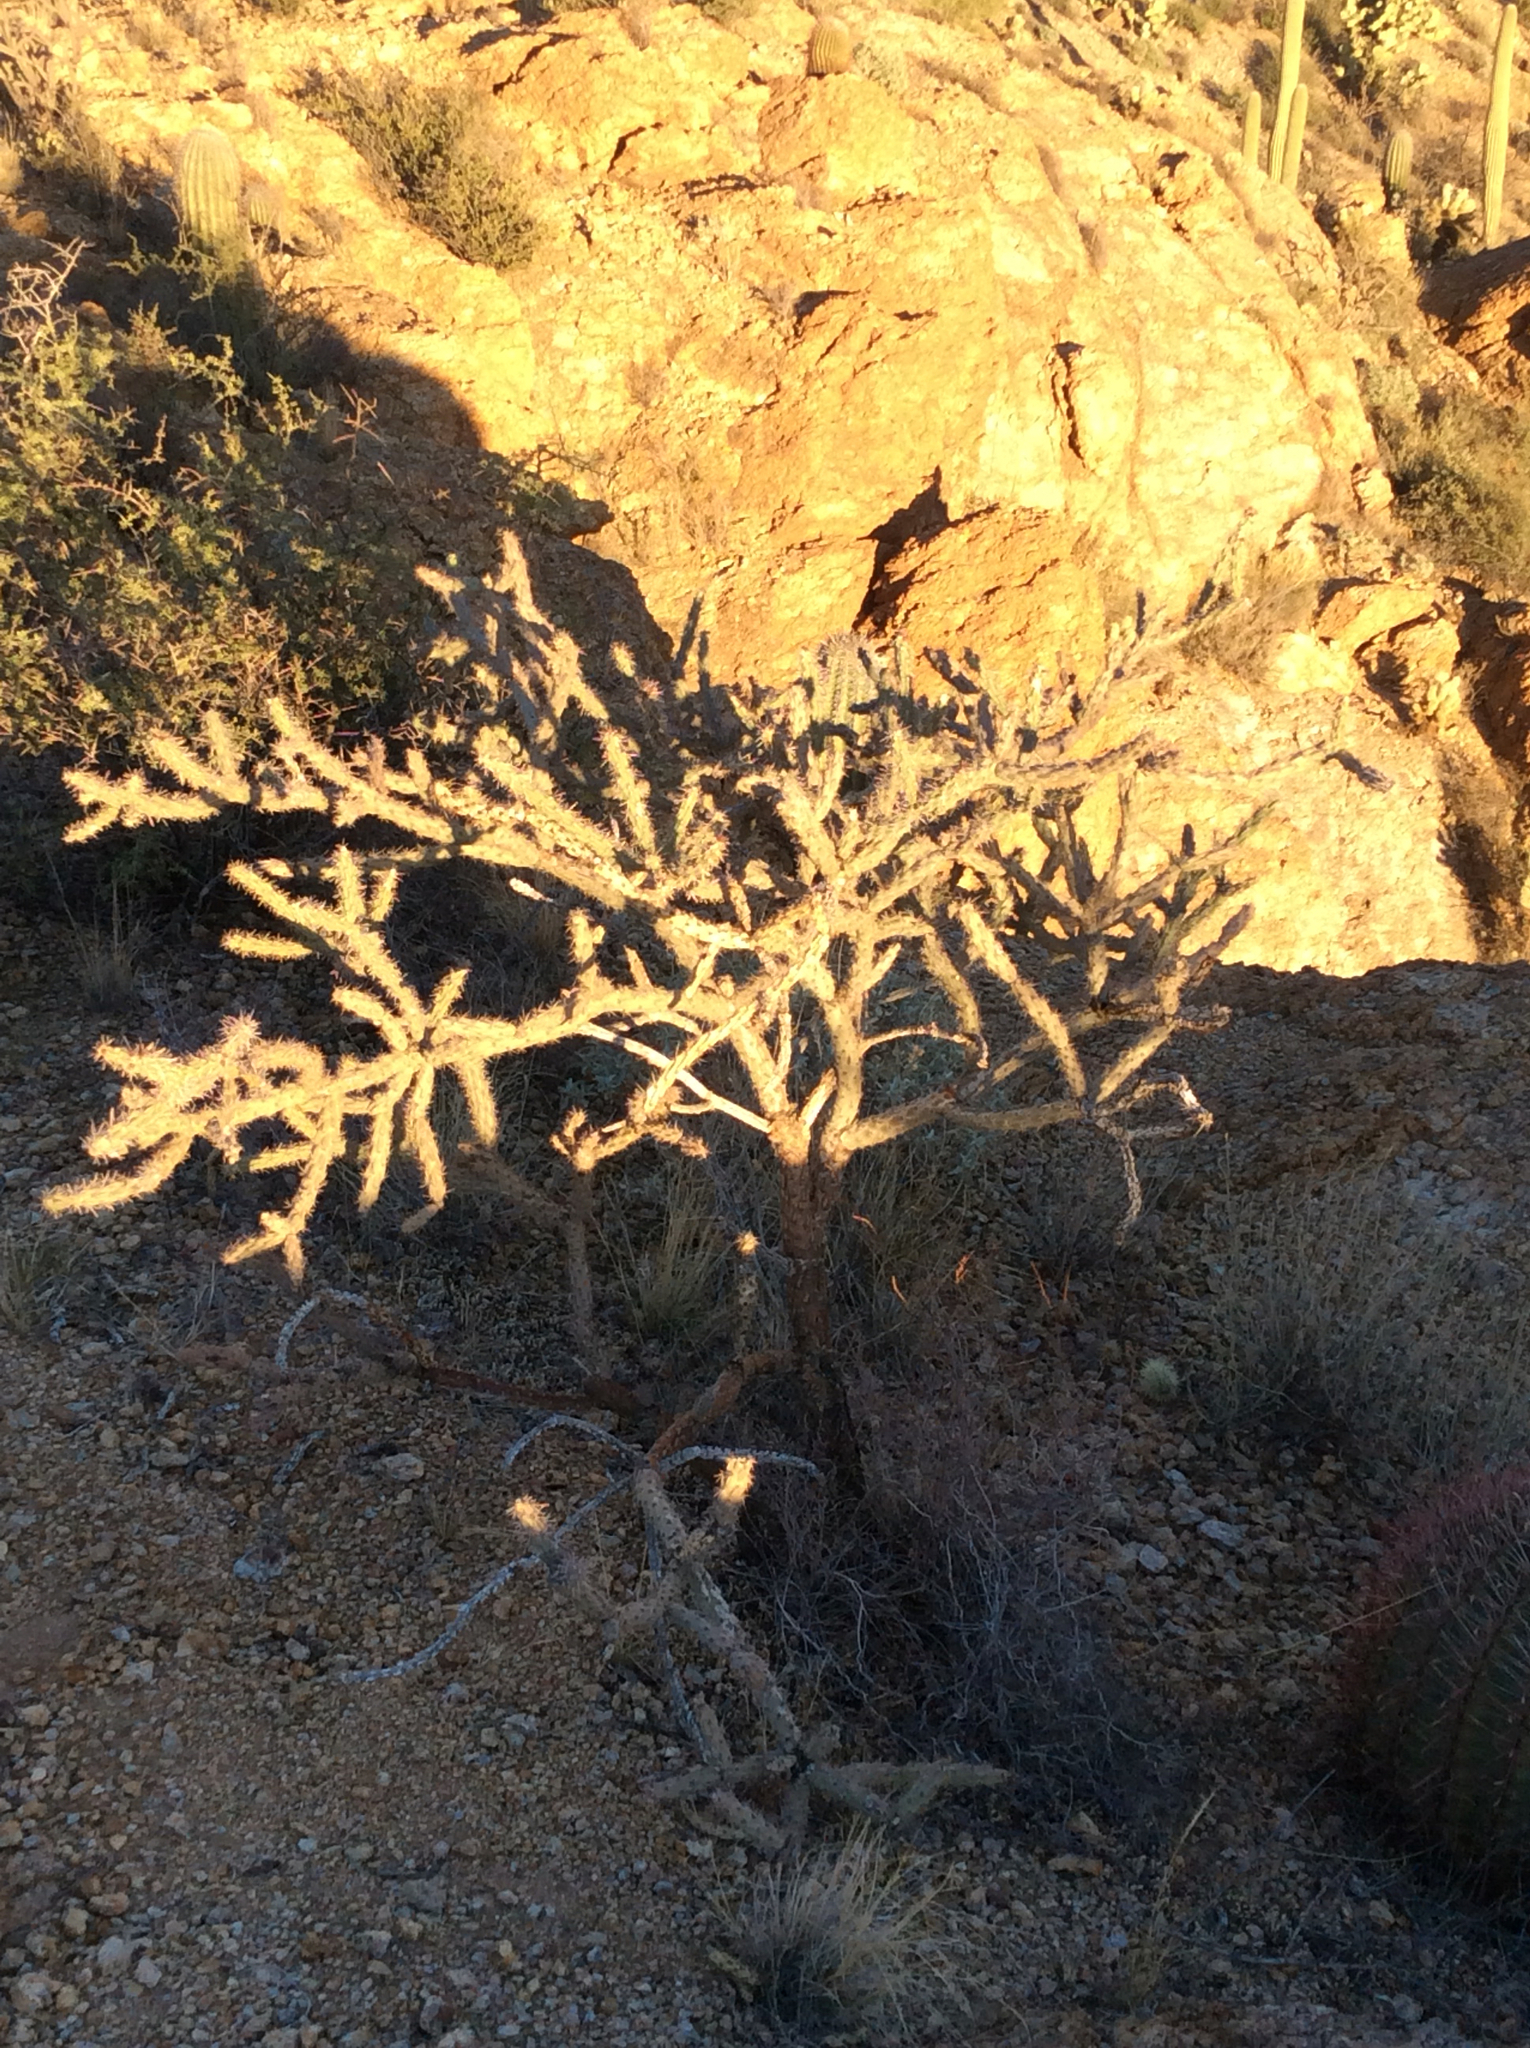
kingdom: Plantae
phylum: Tracheophyta
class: Magnoliopsida
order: Caryophyllales
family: Cactaceae
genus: Cylindropuntia
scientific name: Cylindropuntia imbricata
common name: Candelabrum cactus
